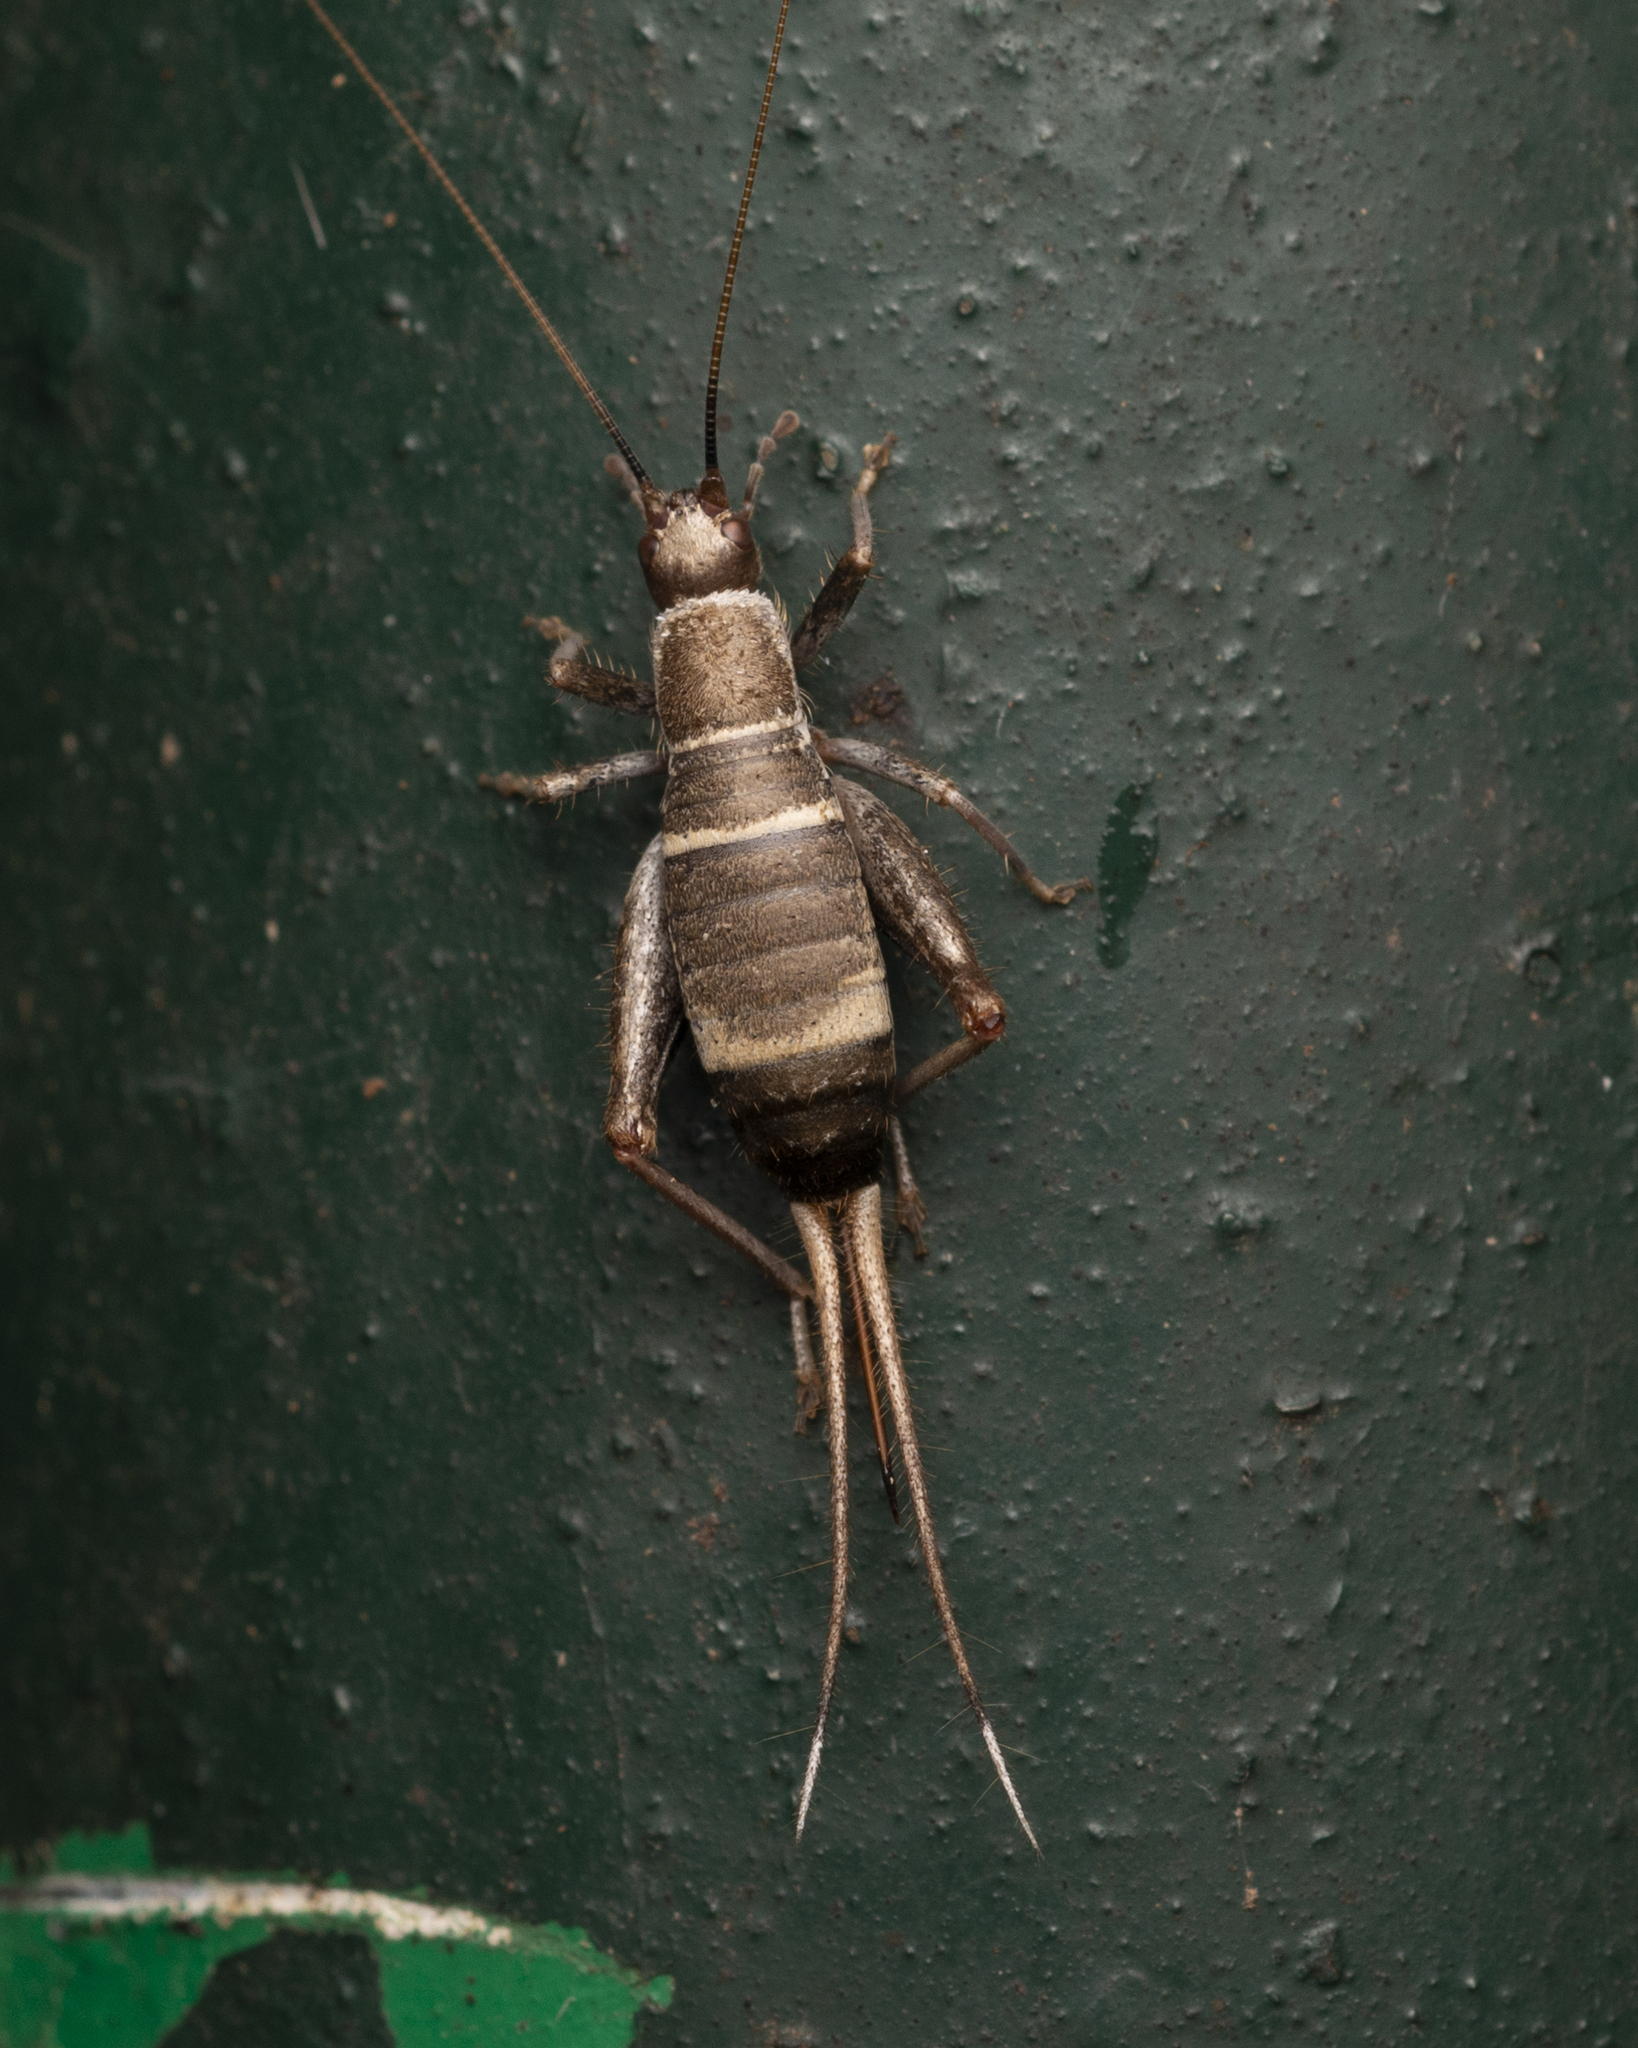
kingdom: Animalia
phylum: Arthropoda
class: Insecta
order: Orthoptera
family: Mogoplistidae
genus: Ornebius
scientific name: Ornebius fuscicerci
